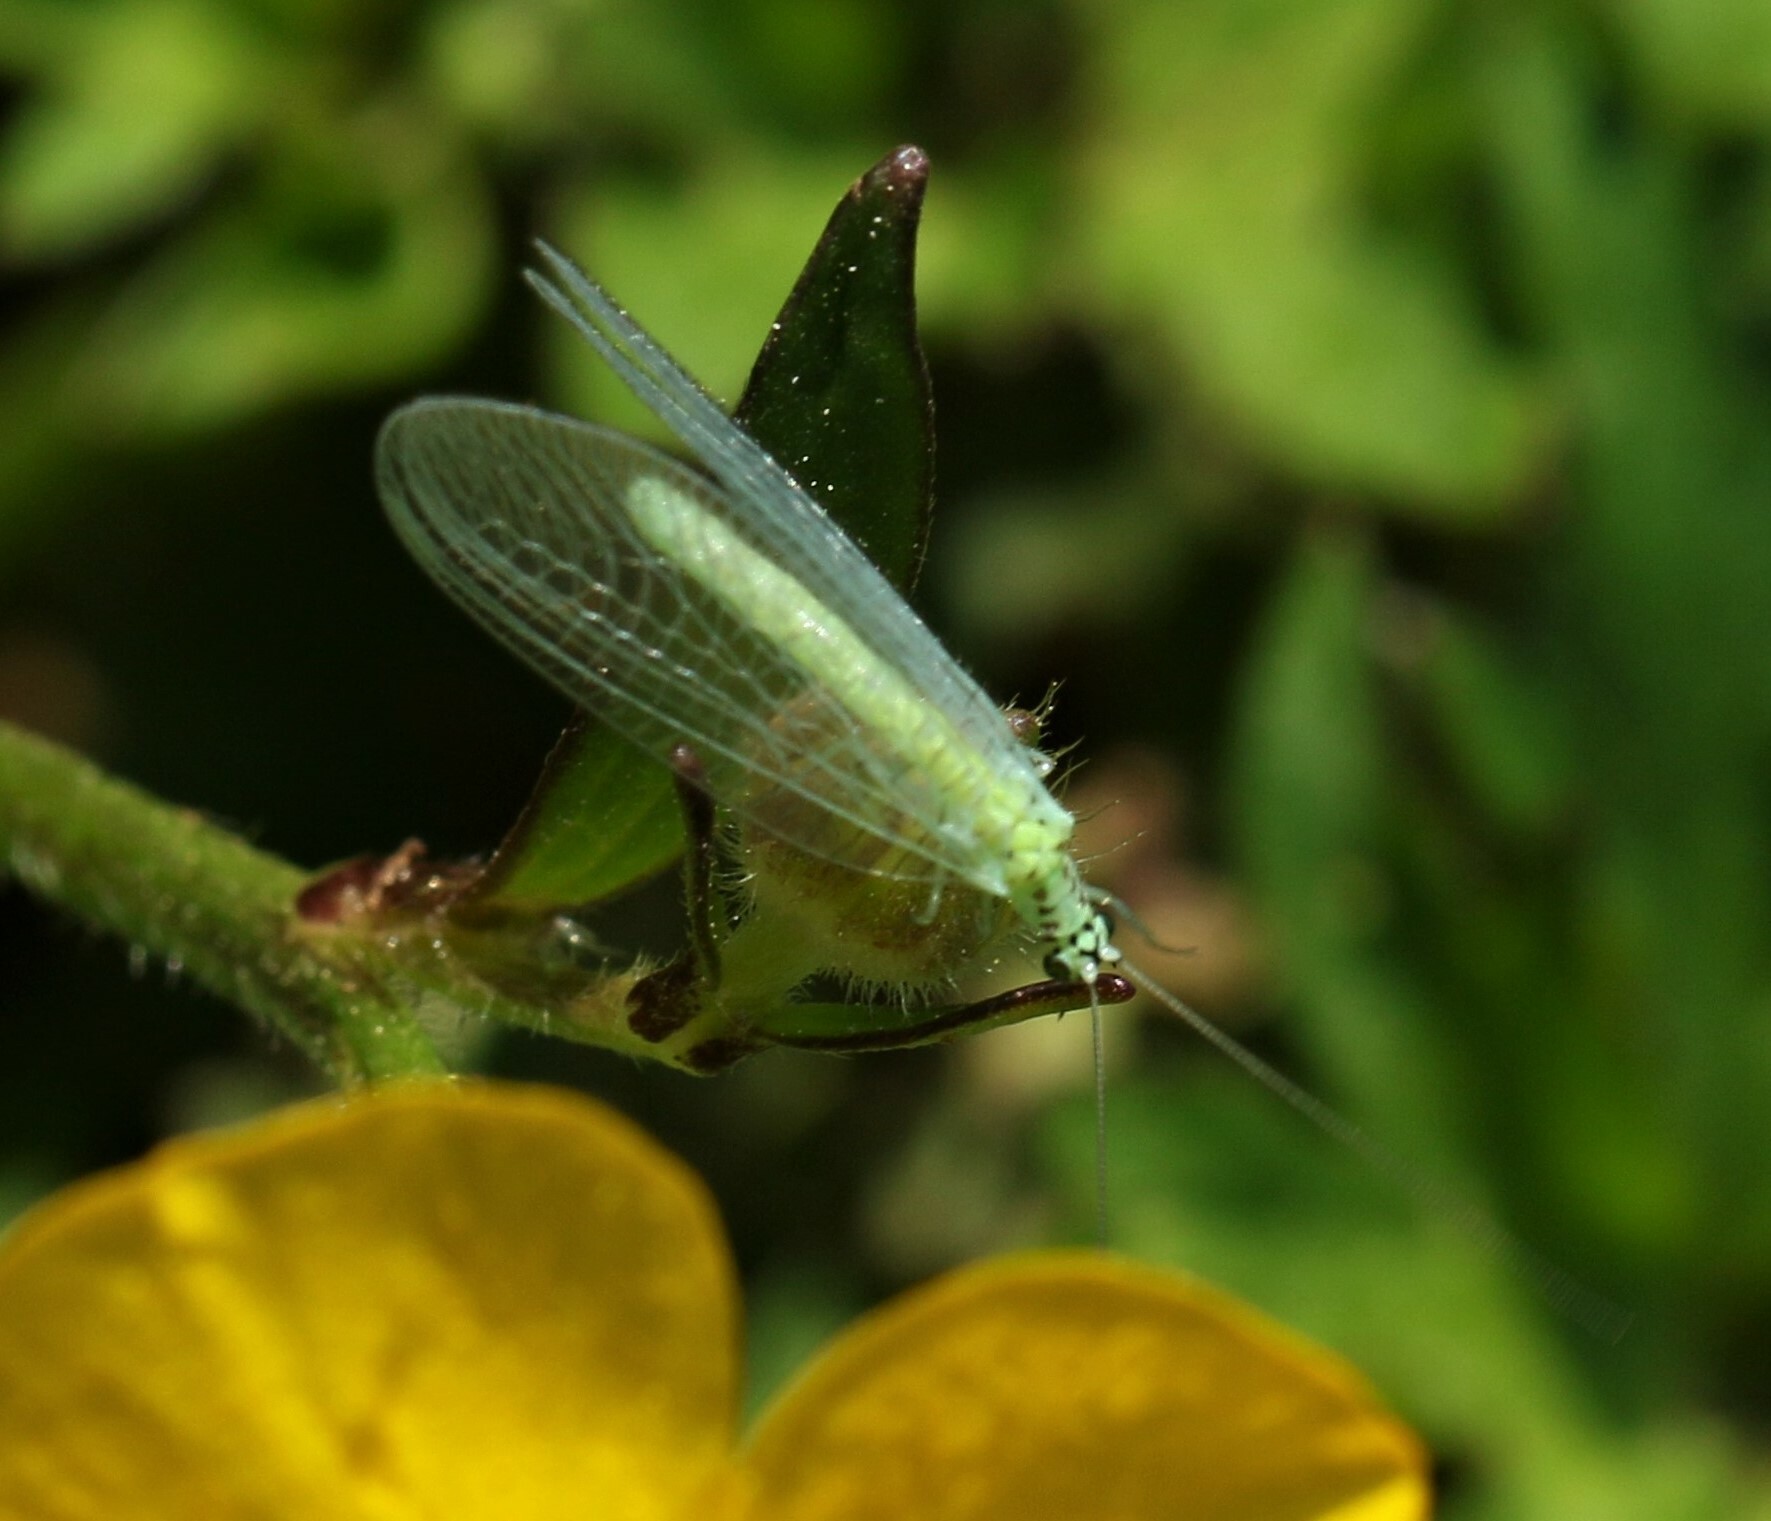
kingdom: Animalia
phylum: Arthropoda
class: Insecta
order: Neuroptera
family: Chrysopidae
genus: Chrysopa
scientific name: Chrysopa chi
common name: X-marked green lacewing
